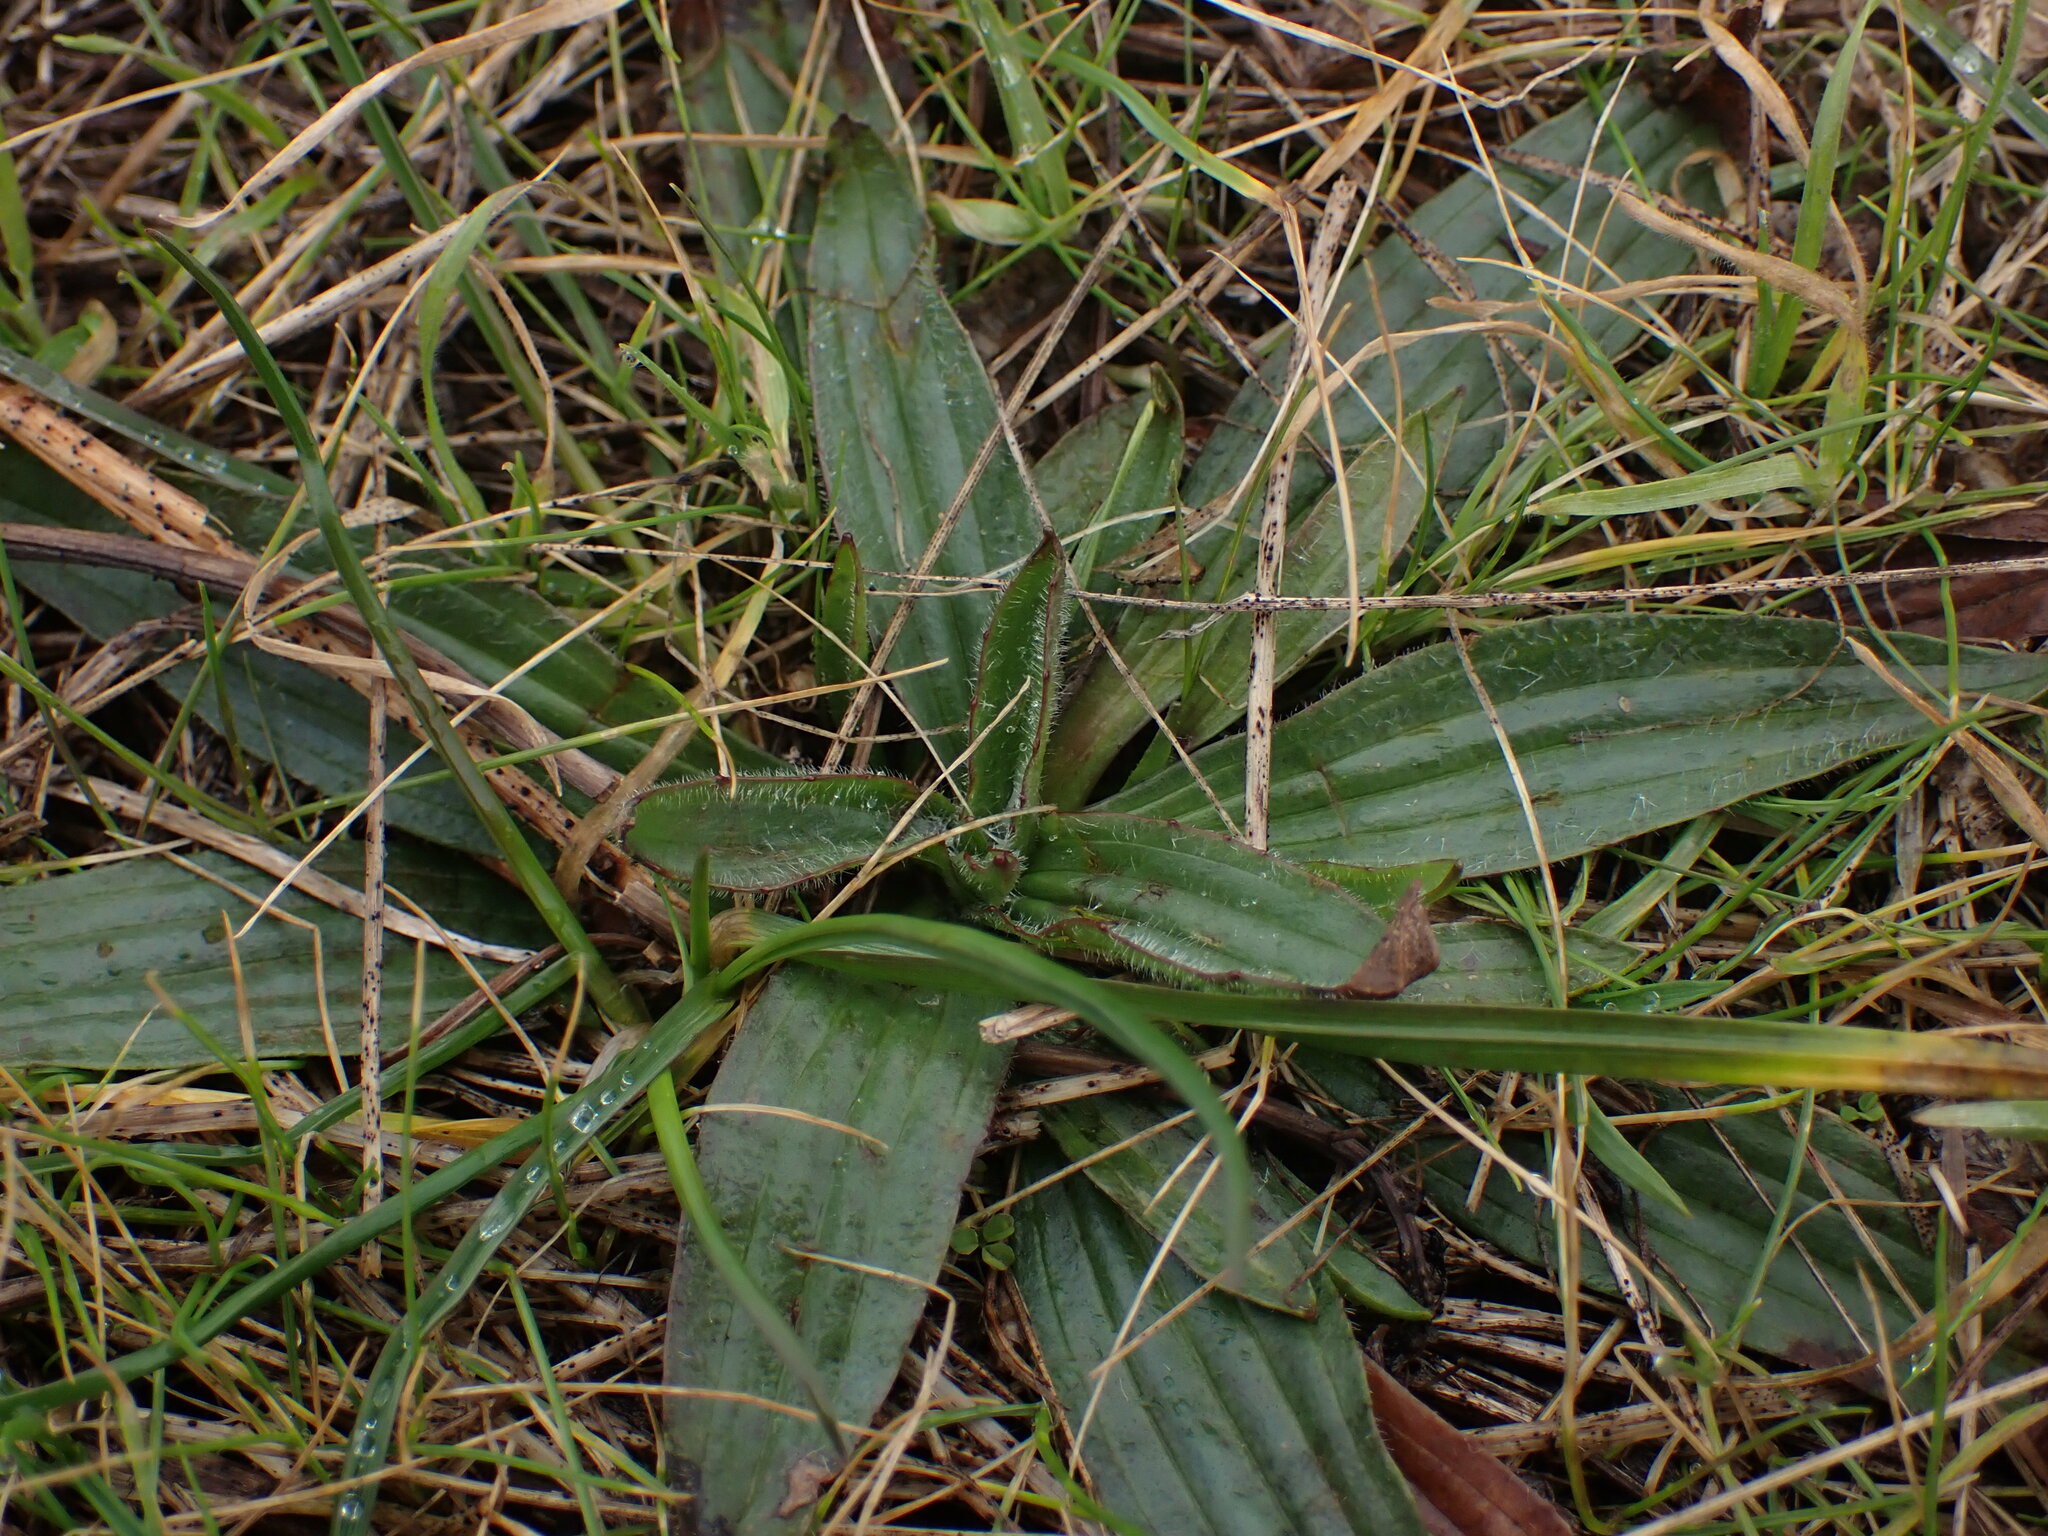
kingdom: Plantae
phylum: Tracheophyta
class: Magnoliopsida
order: Lamiales
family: Plantaginaceae
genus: Plantago
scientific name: Plantago lanceolata
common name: Ribwort plantain
